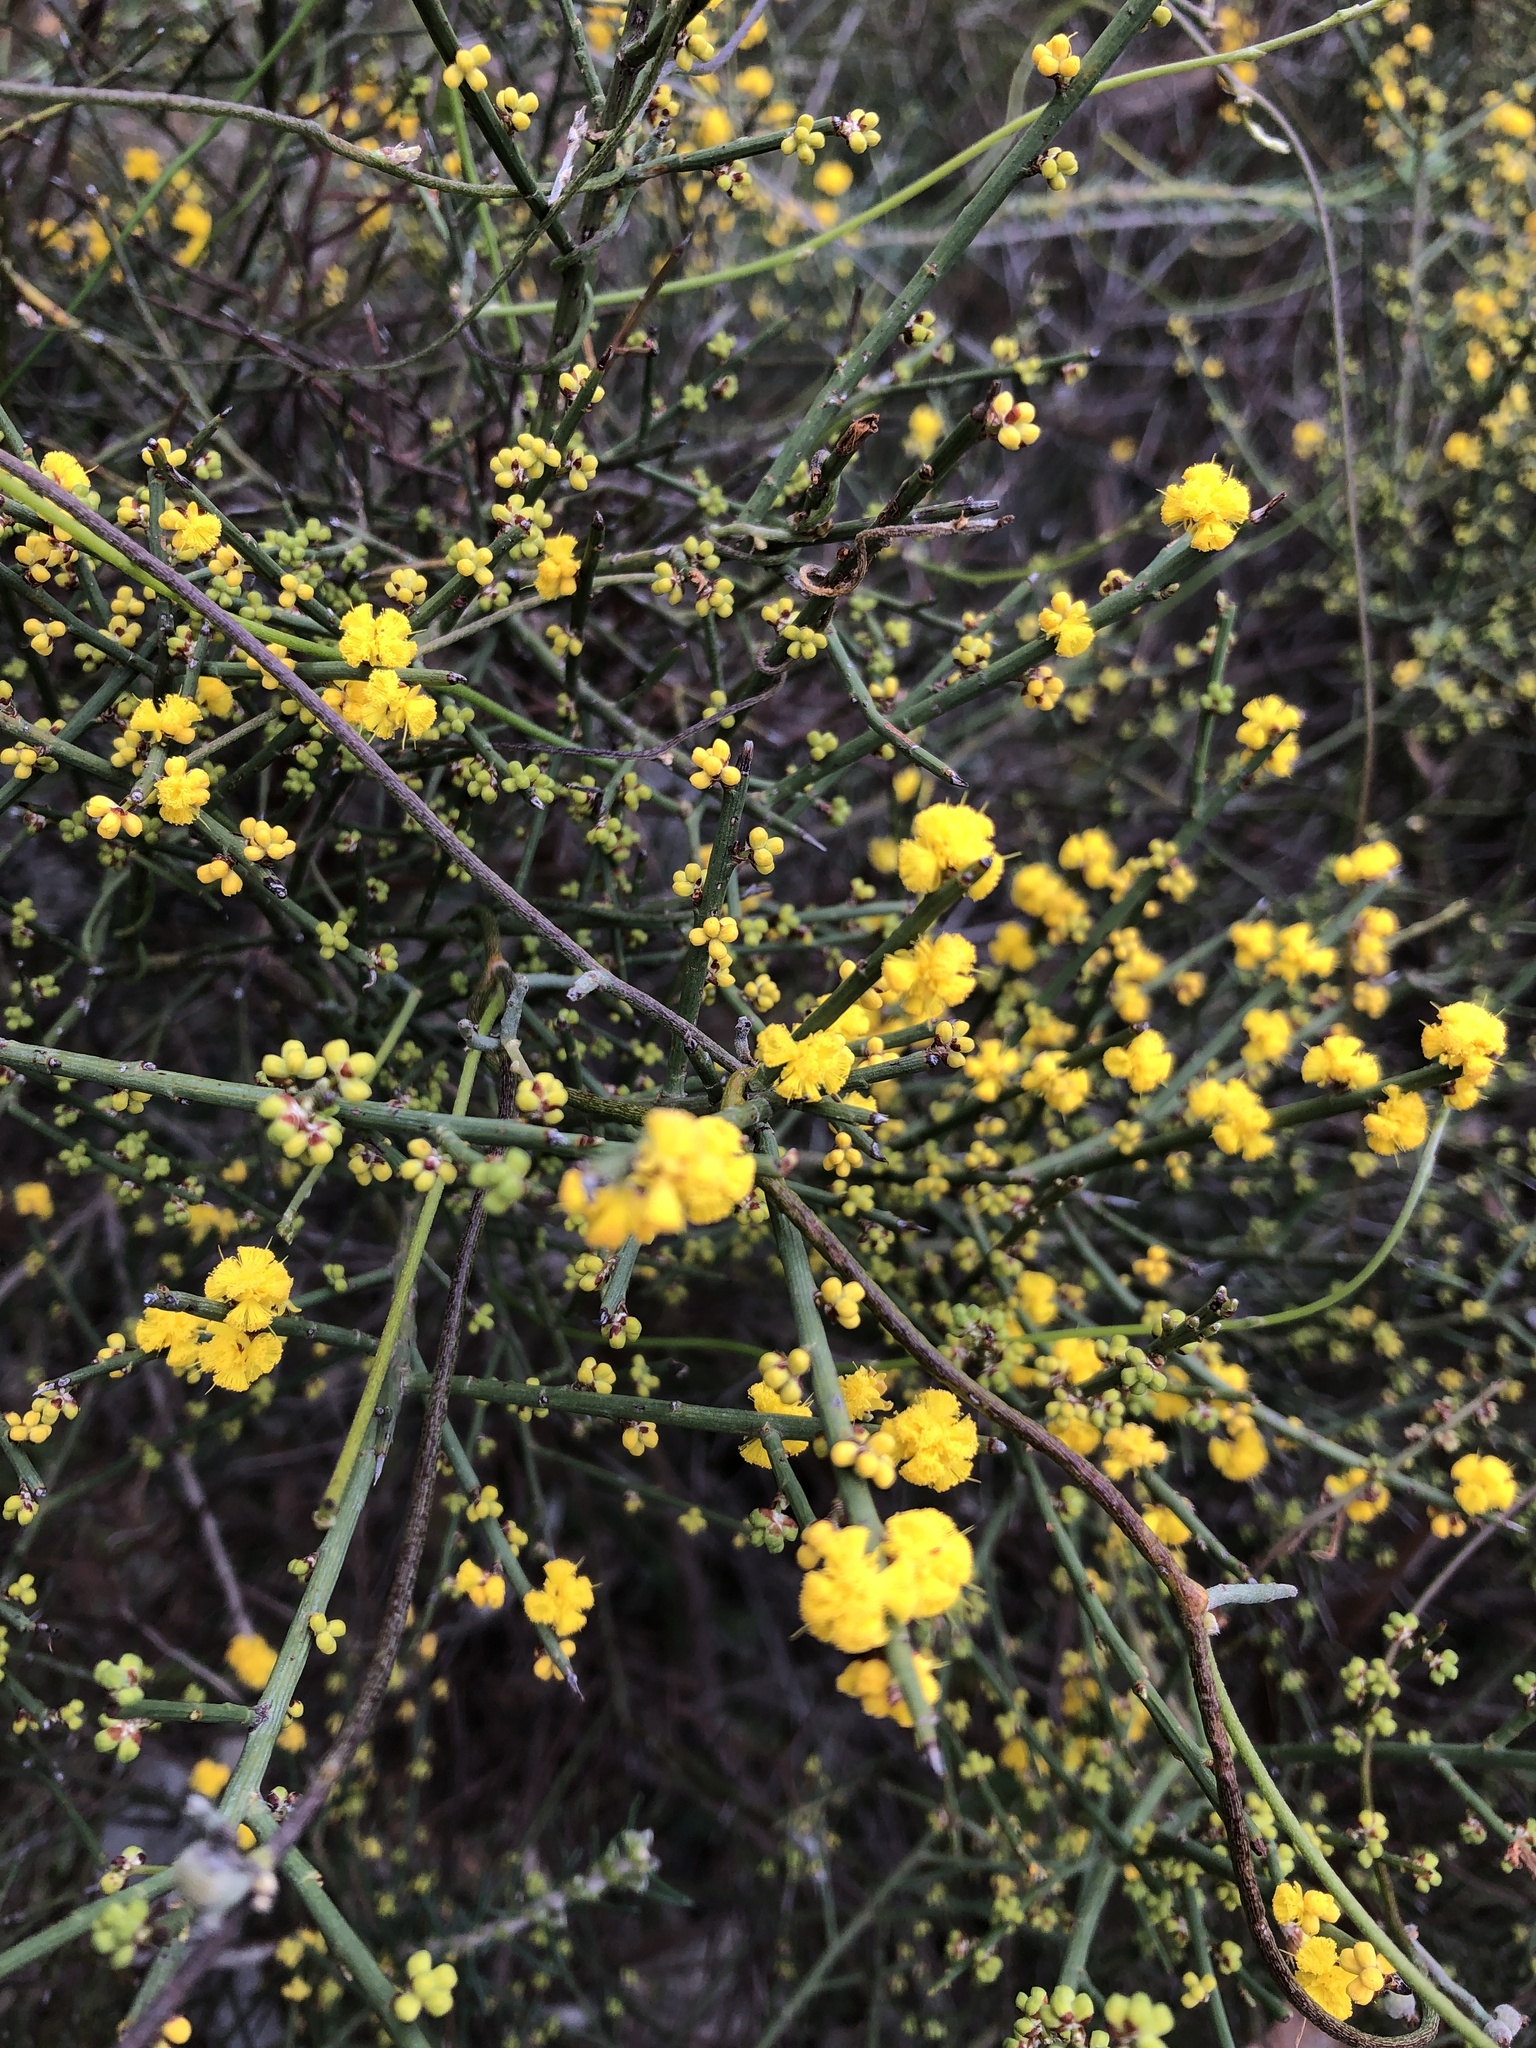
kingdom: Plantae
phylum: Tracheophyta
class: Magnoliopsida
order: Fabales
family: Fabaceae
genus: Acacia
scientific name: Acacia spinescens
